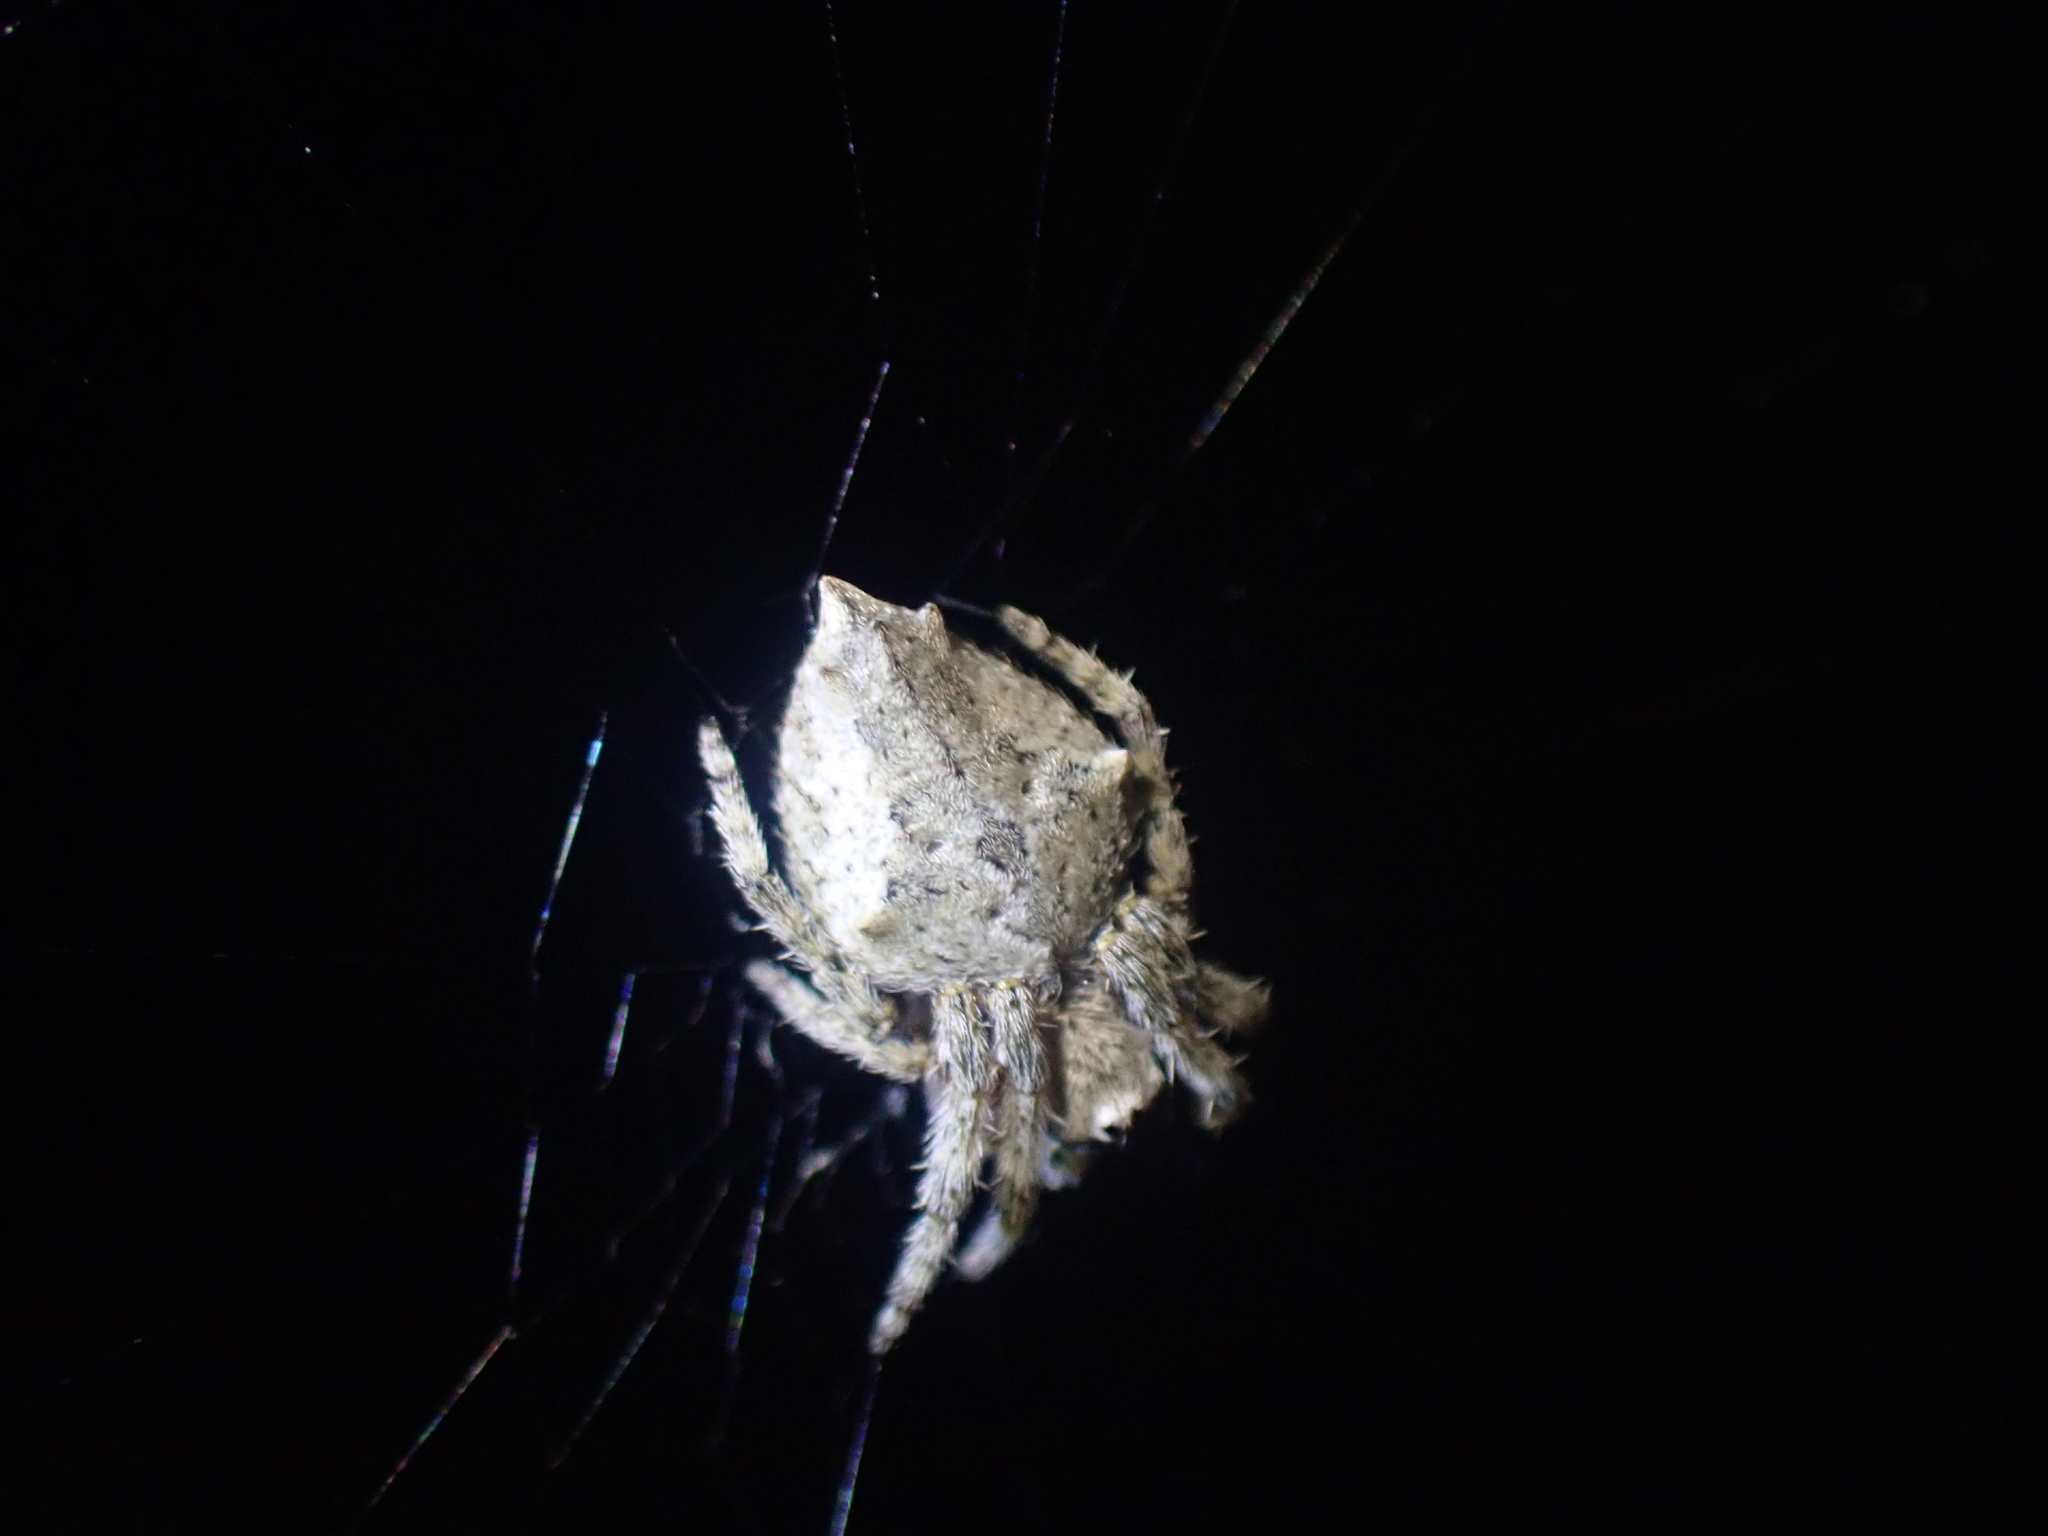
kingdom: Animalia
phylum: Arthropoda
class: Arachnida
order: Araneae
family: Araneidae
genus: Eriophora
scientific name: Eriophora pustulosa
